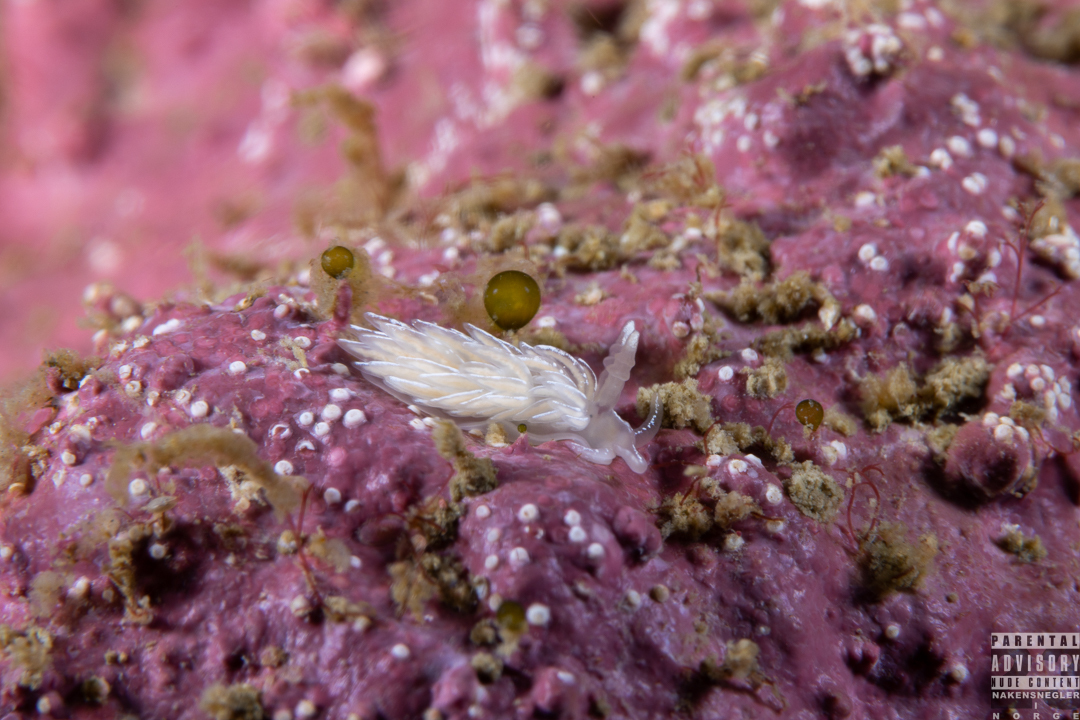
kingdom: Animalia
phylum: Mollusca
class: Gastropoda
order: Nudibranchia
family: Facelinidae
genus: Favorinus
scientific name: Favorinus blianus
